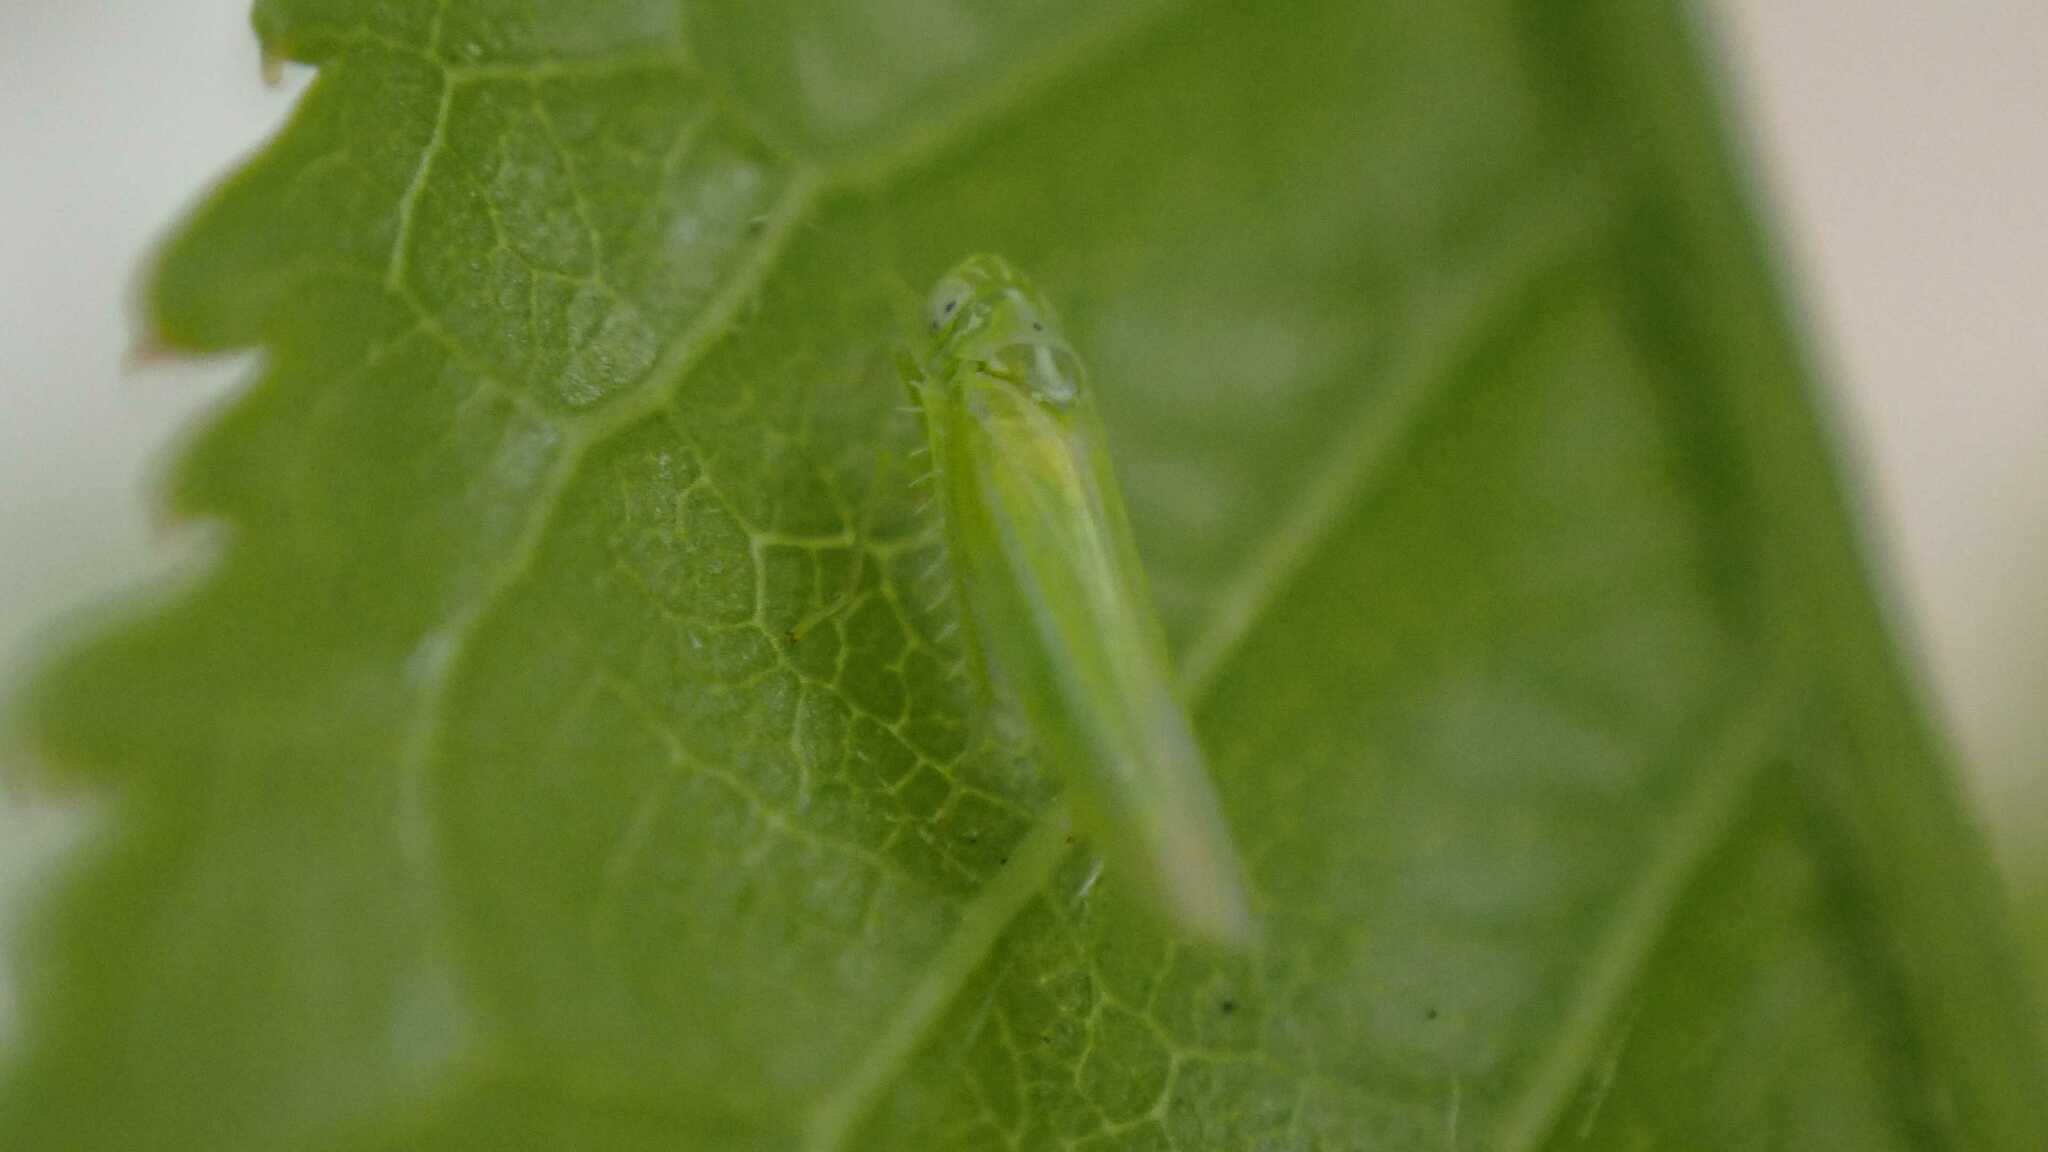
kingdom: Animalia
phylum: Arthropoda
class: Insecta
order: Hemiptera
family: Cicadellidae
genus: Hebata
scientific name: Hebata vitis
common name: The smaller green leafhopper
